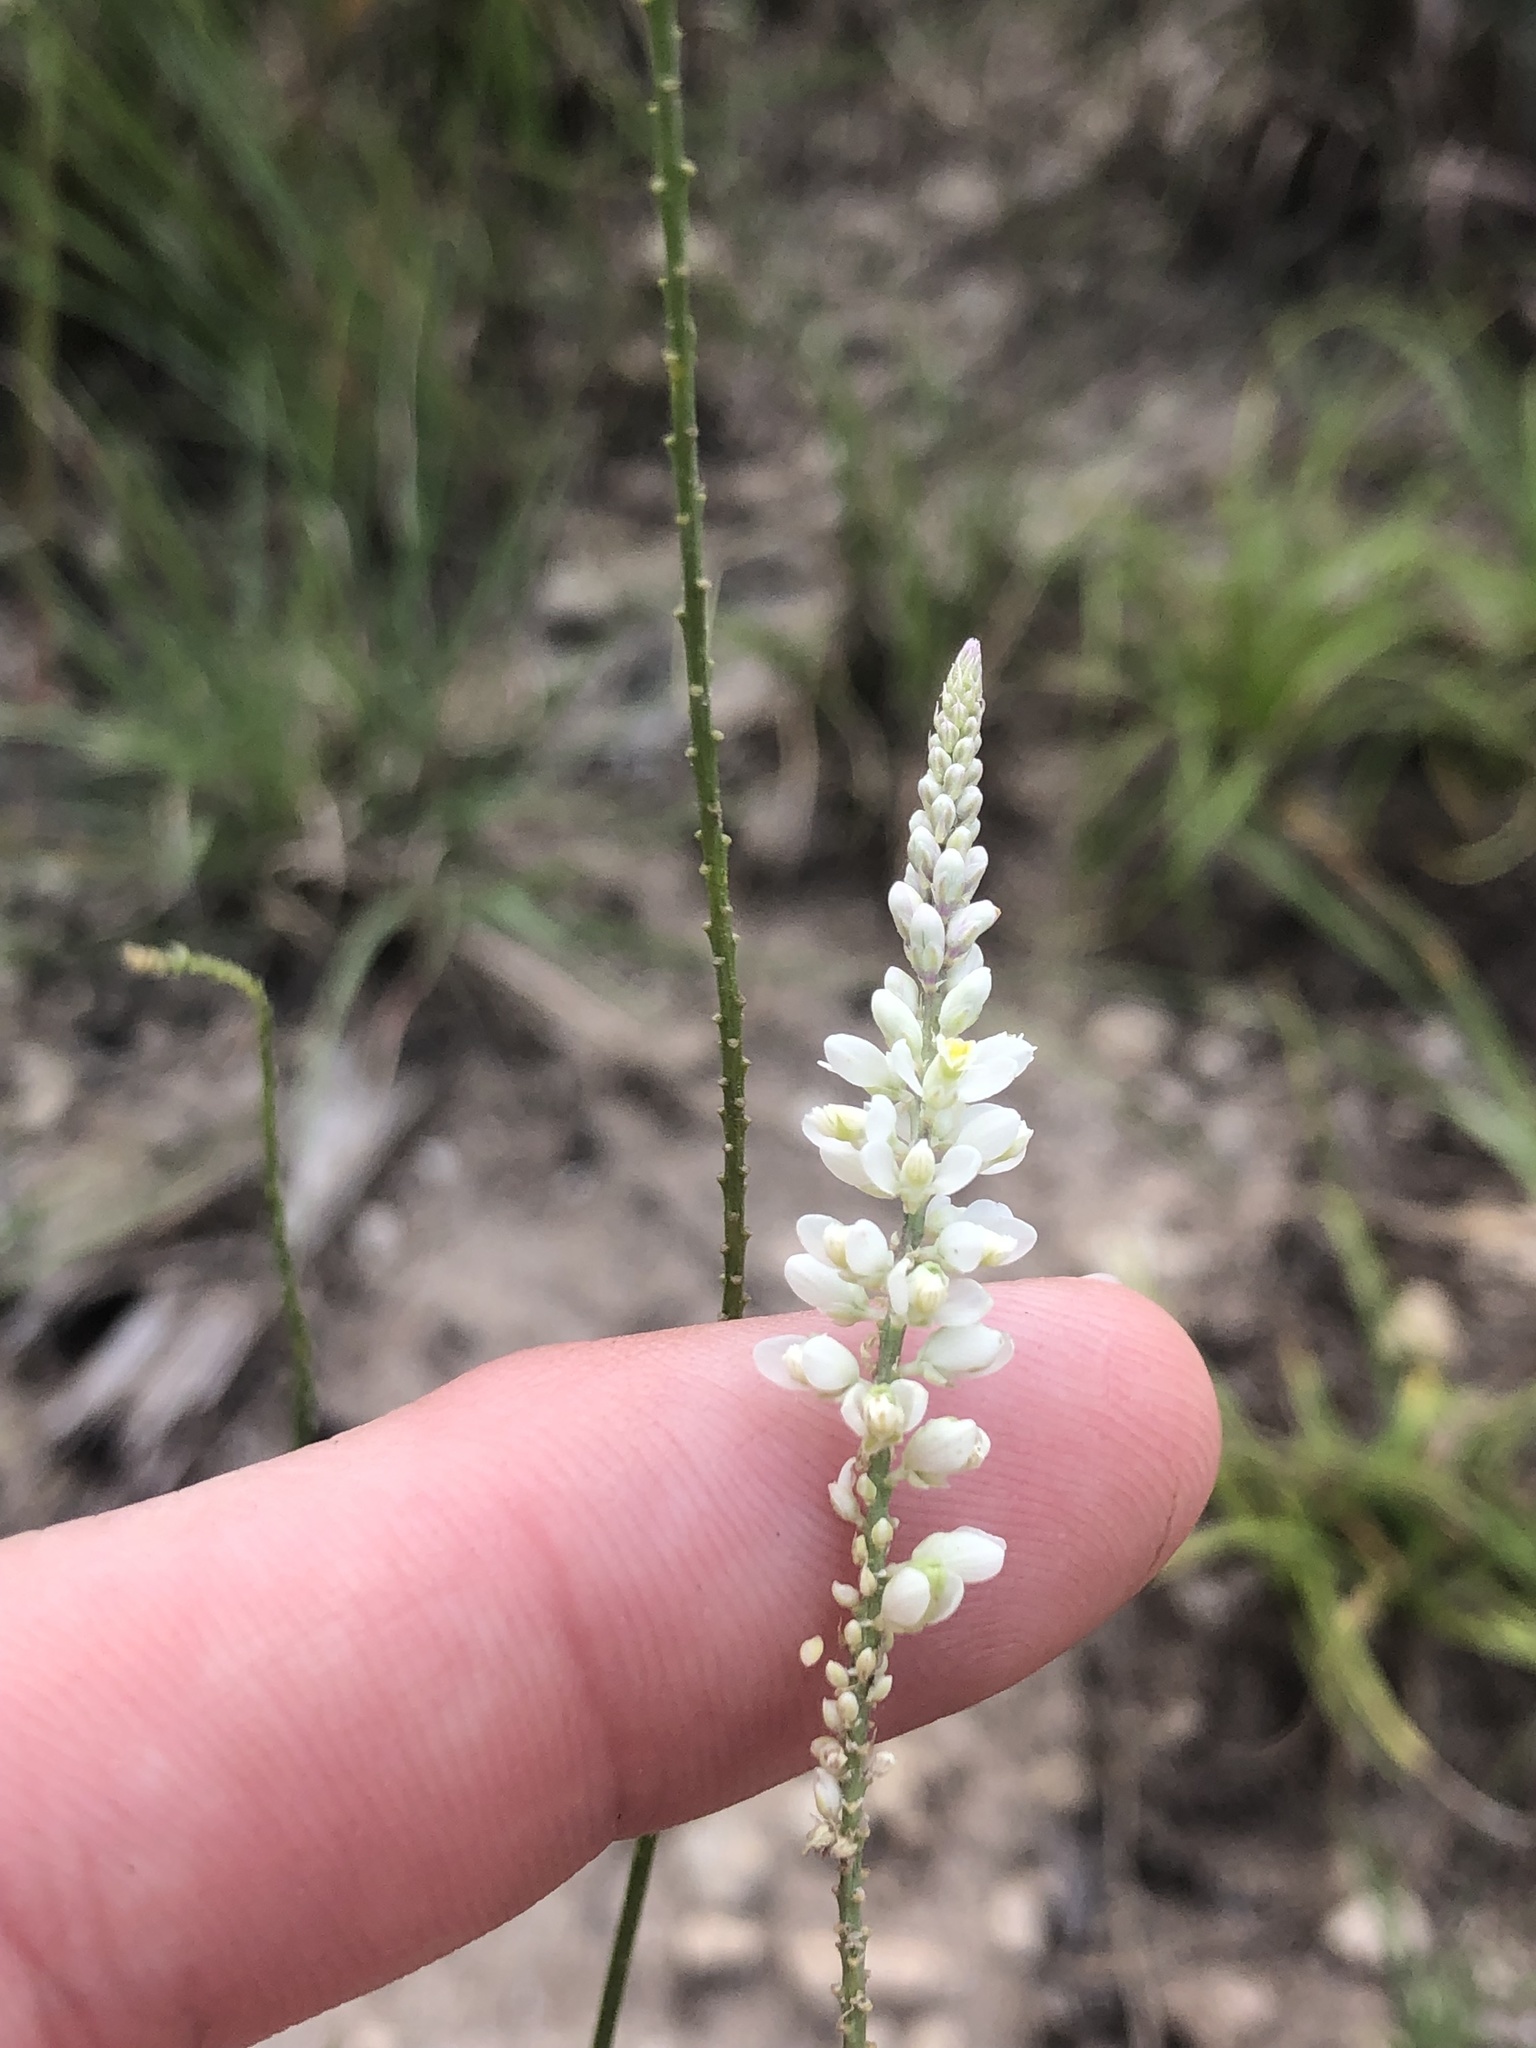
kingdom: Plantae
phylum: Tracheophyta
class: Magnoliopsida
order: Fabales
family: Polygalaceae
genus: Polygala
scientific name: Polygala alba
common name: White milkwort
